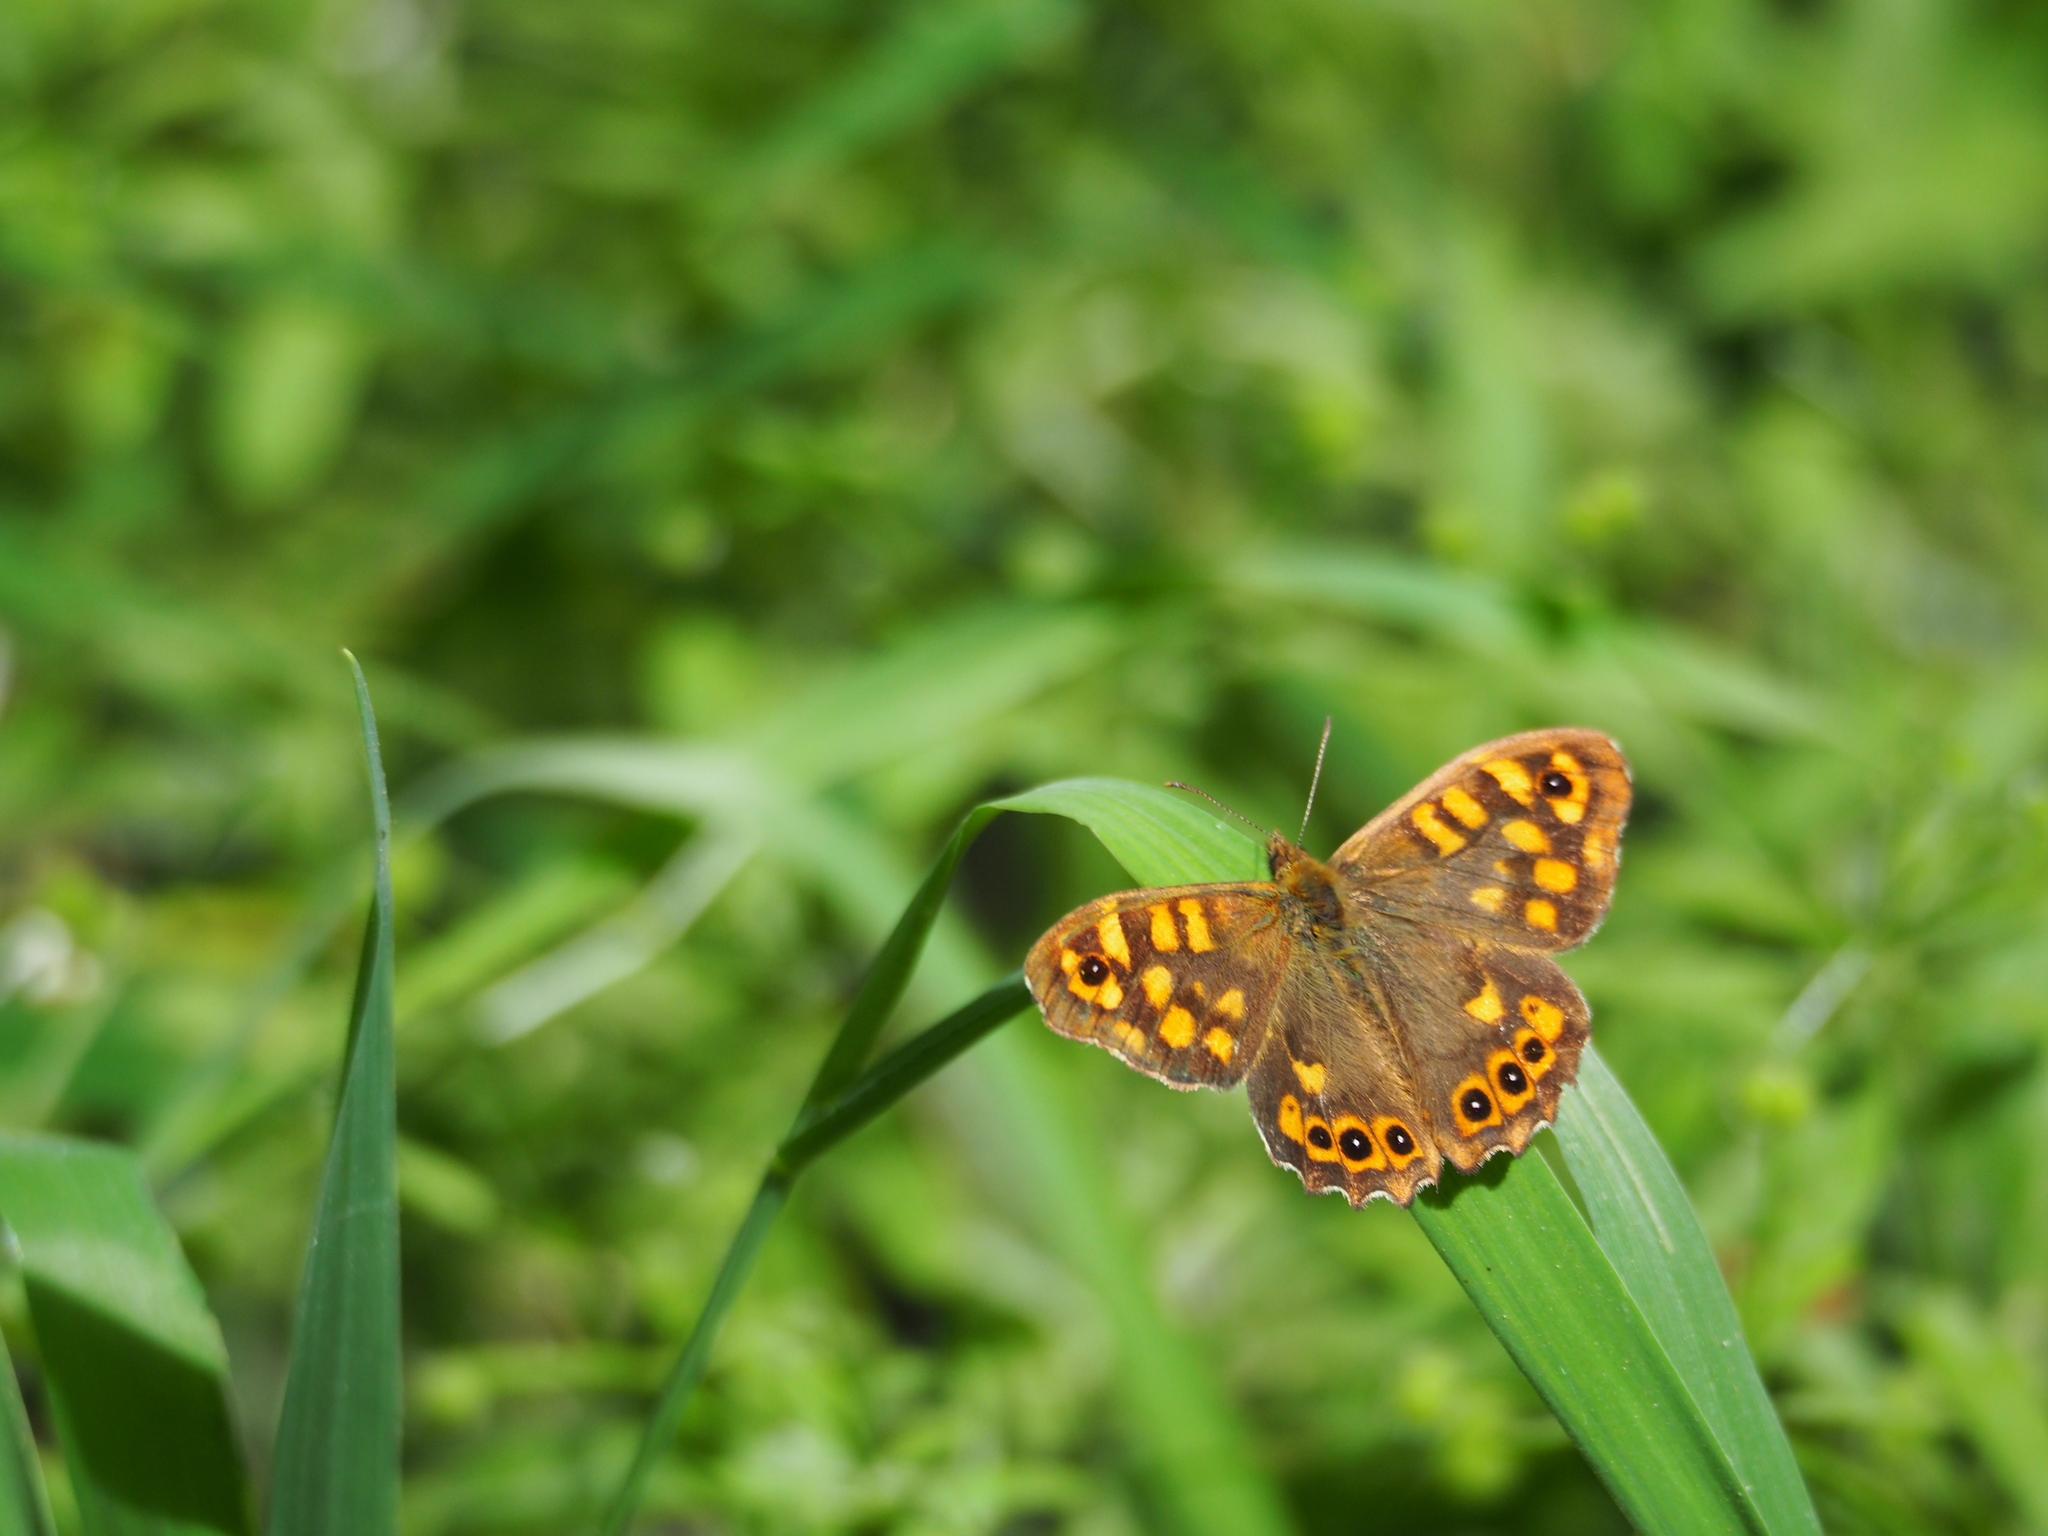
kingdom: Animalia
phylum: Arthropoda
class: Insecta
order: Lepidoptera
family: Nymphalidae
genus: Pararge
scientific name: Pararge aegeria
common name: Speckled wood
